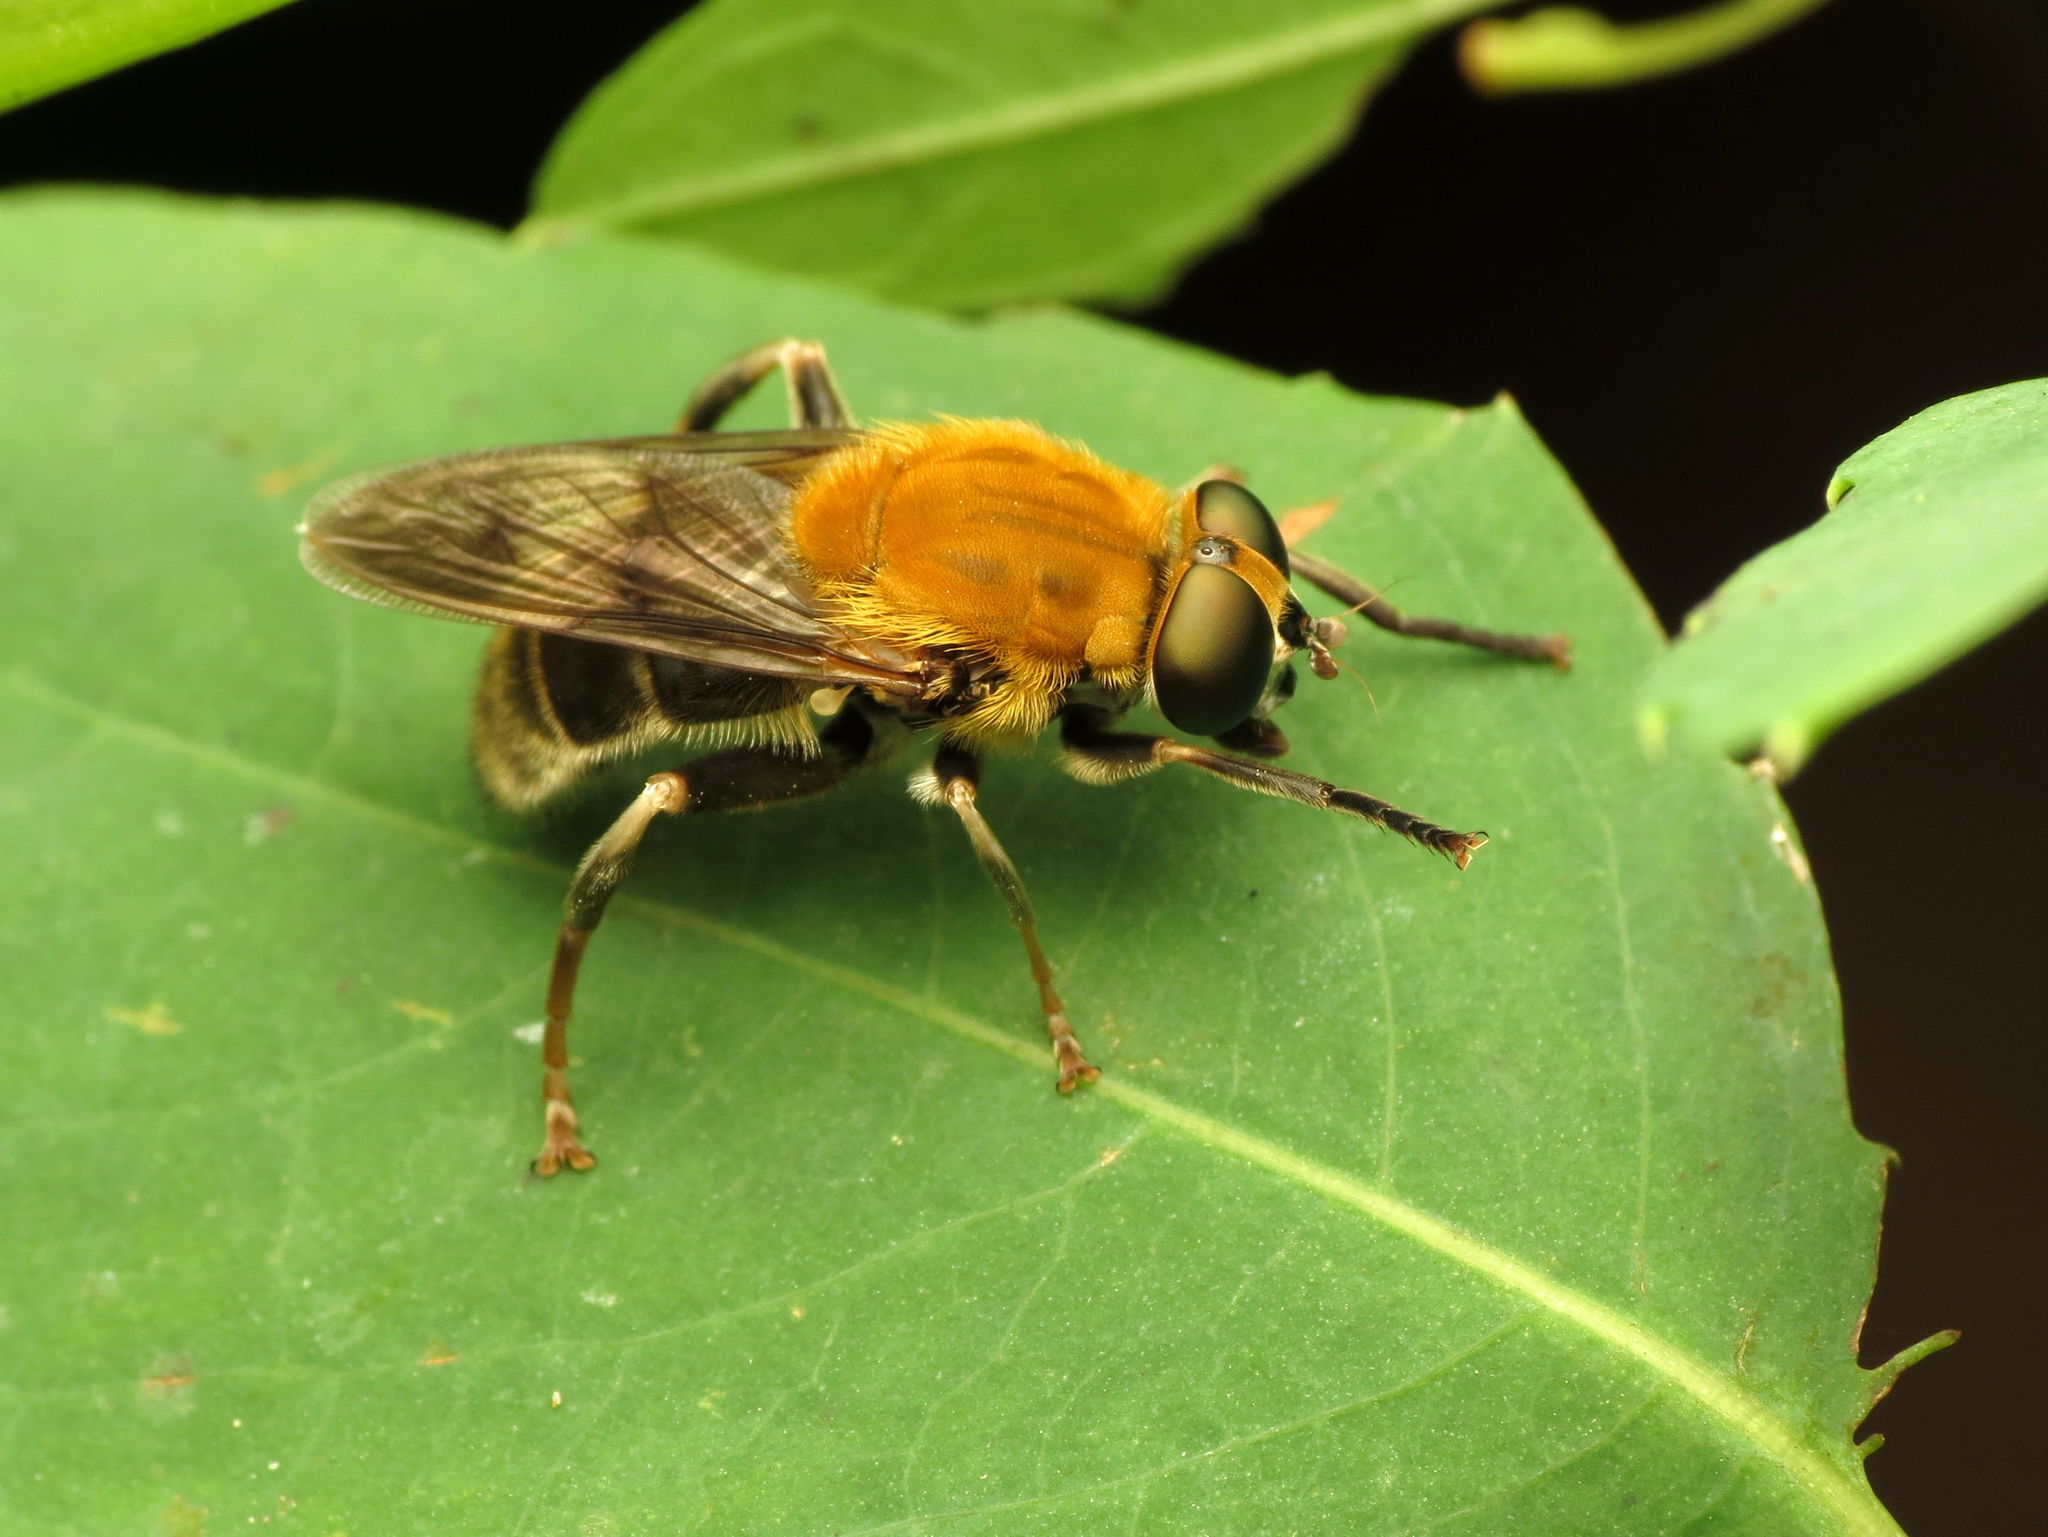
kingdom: Animalia
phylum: Arthropoda
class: Insecta
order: Diptera
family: Syrphidae
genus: Pterallastes
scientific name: Pterallastes thoracicus
